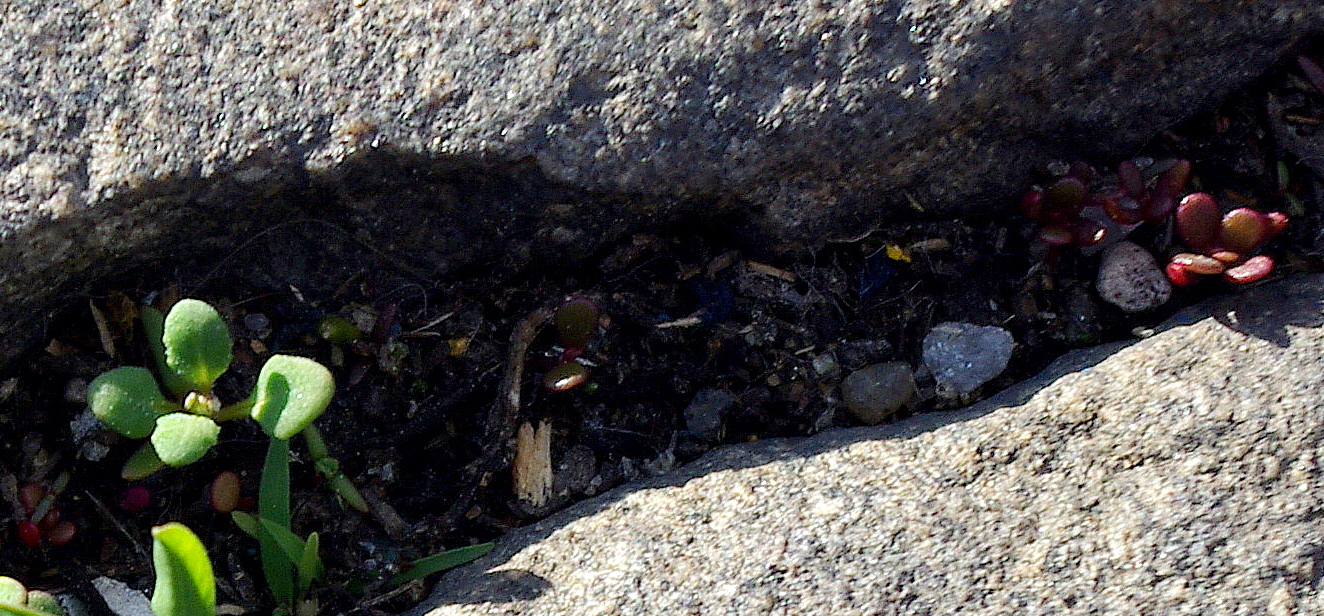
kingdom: Plantae
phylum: Tracheophyta
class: Magnoliopsida
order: Caryophyllales
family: Portulacaceae
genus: Portulaca
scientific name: Portulaca oleracea
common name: Common purslane
